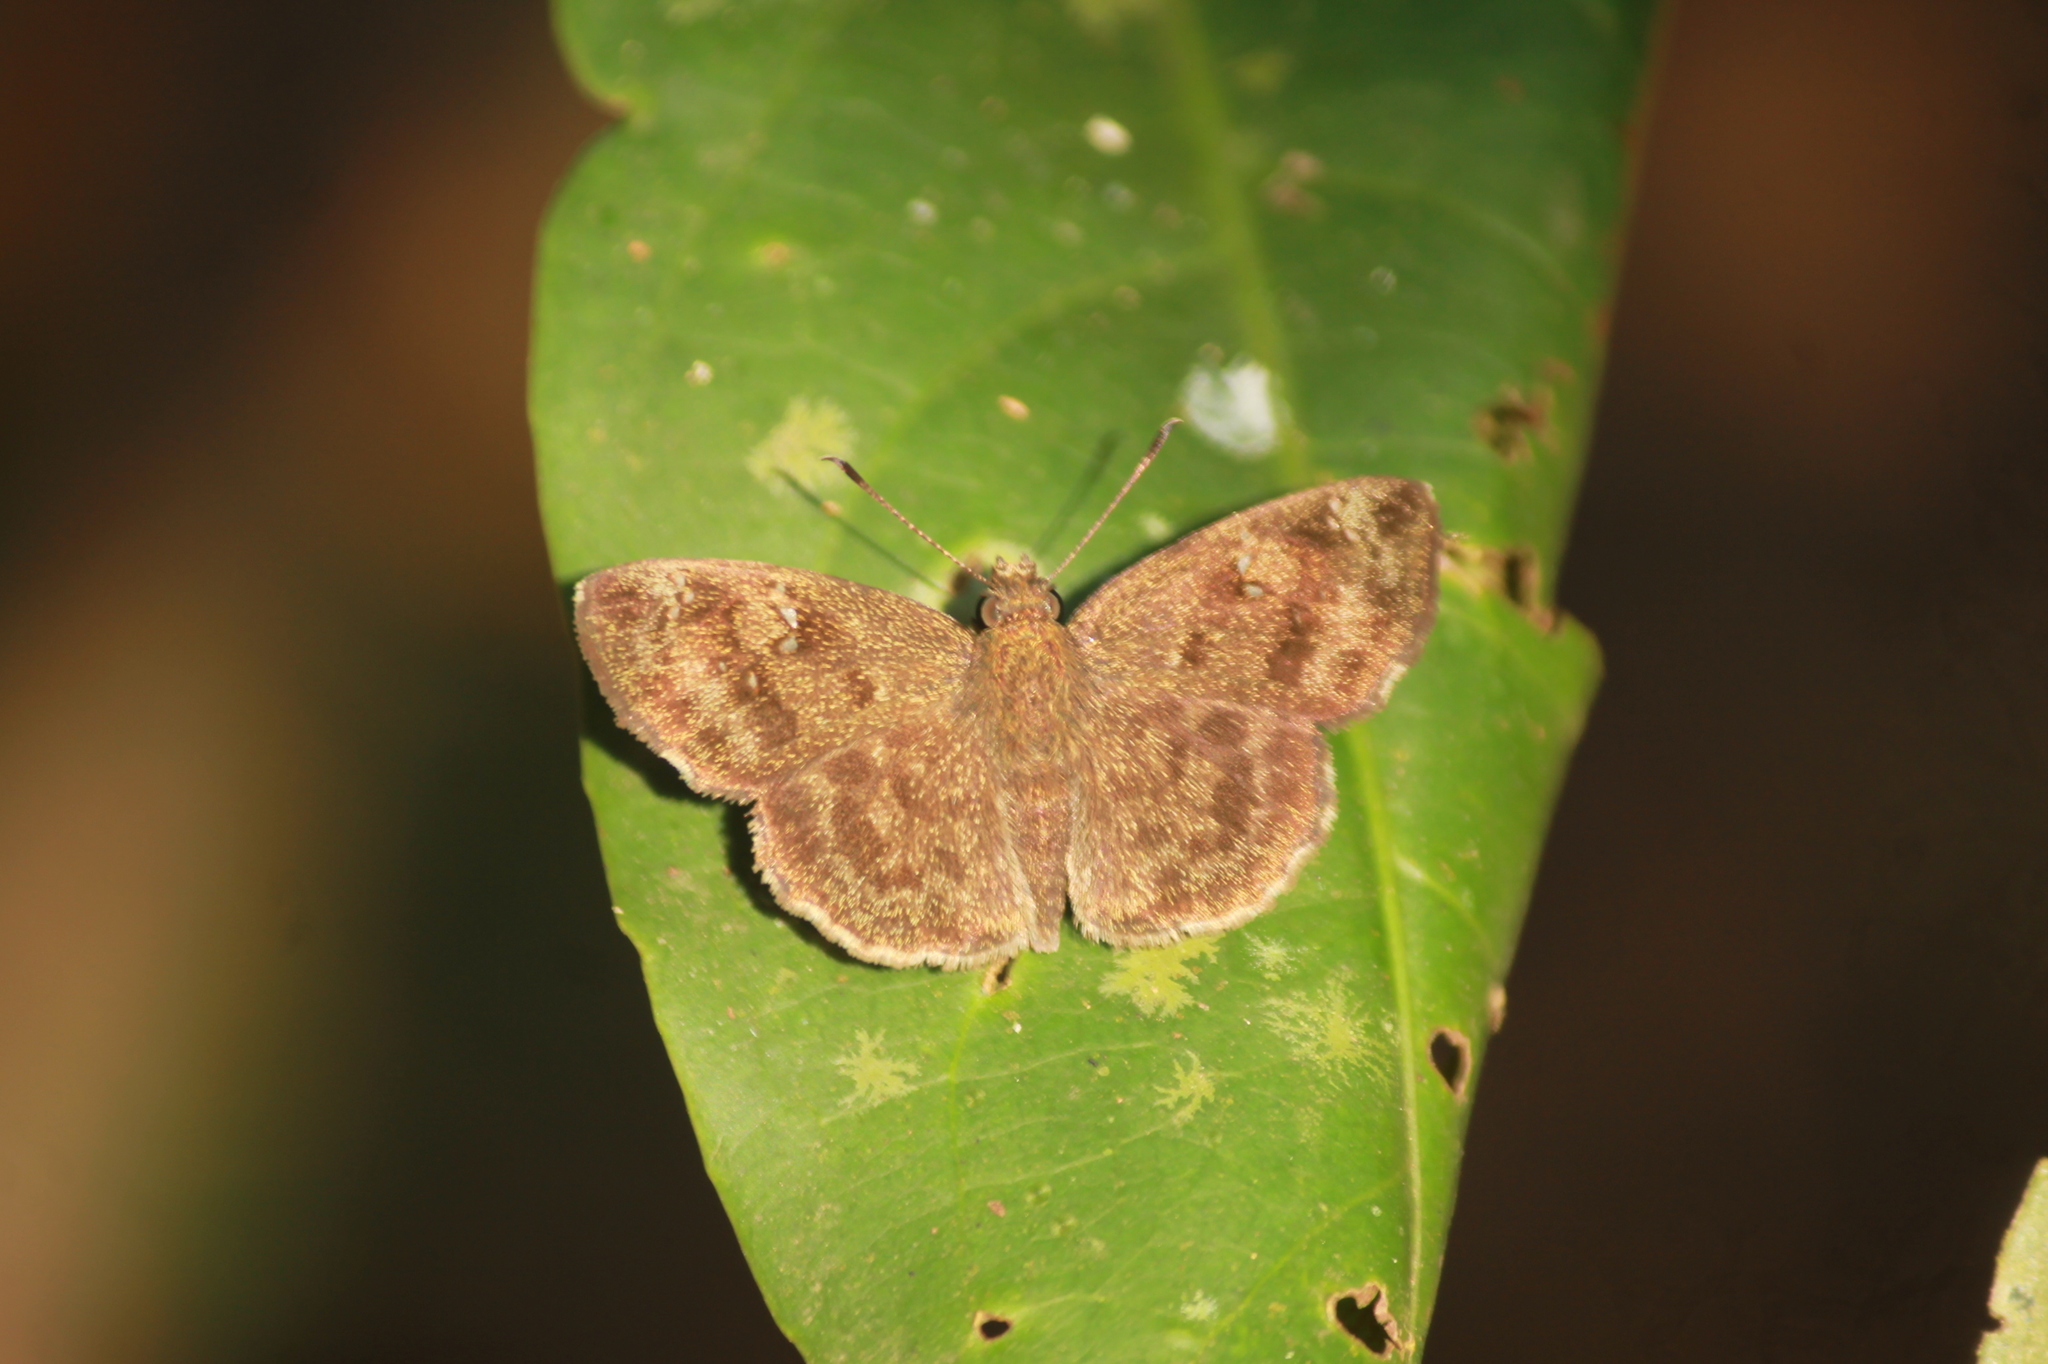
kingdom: Animalia
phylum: Arthropoda
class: Insecta
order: Lepidoptera
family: Hesperiidae
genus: Sarangesa
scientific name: Sarangesa dasahara
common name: Common small flat
